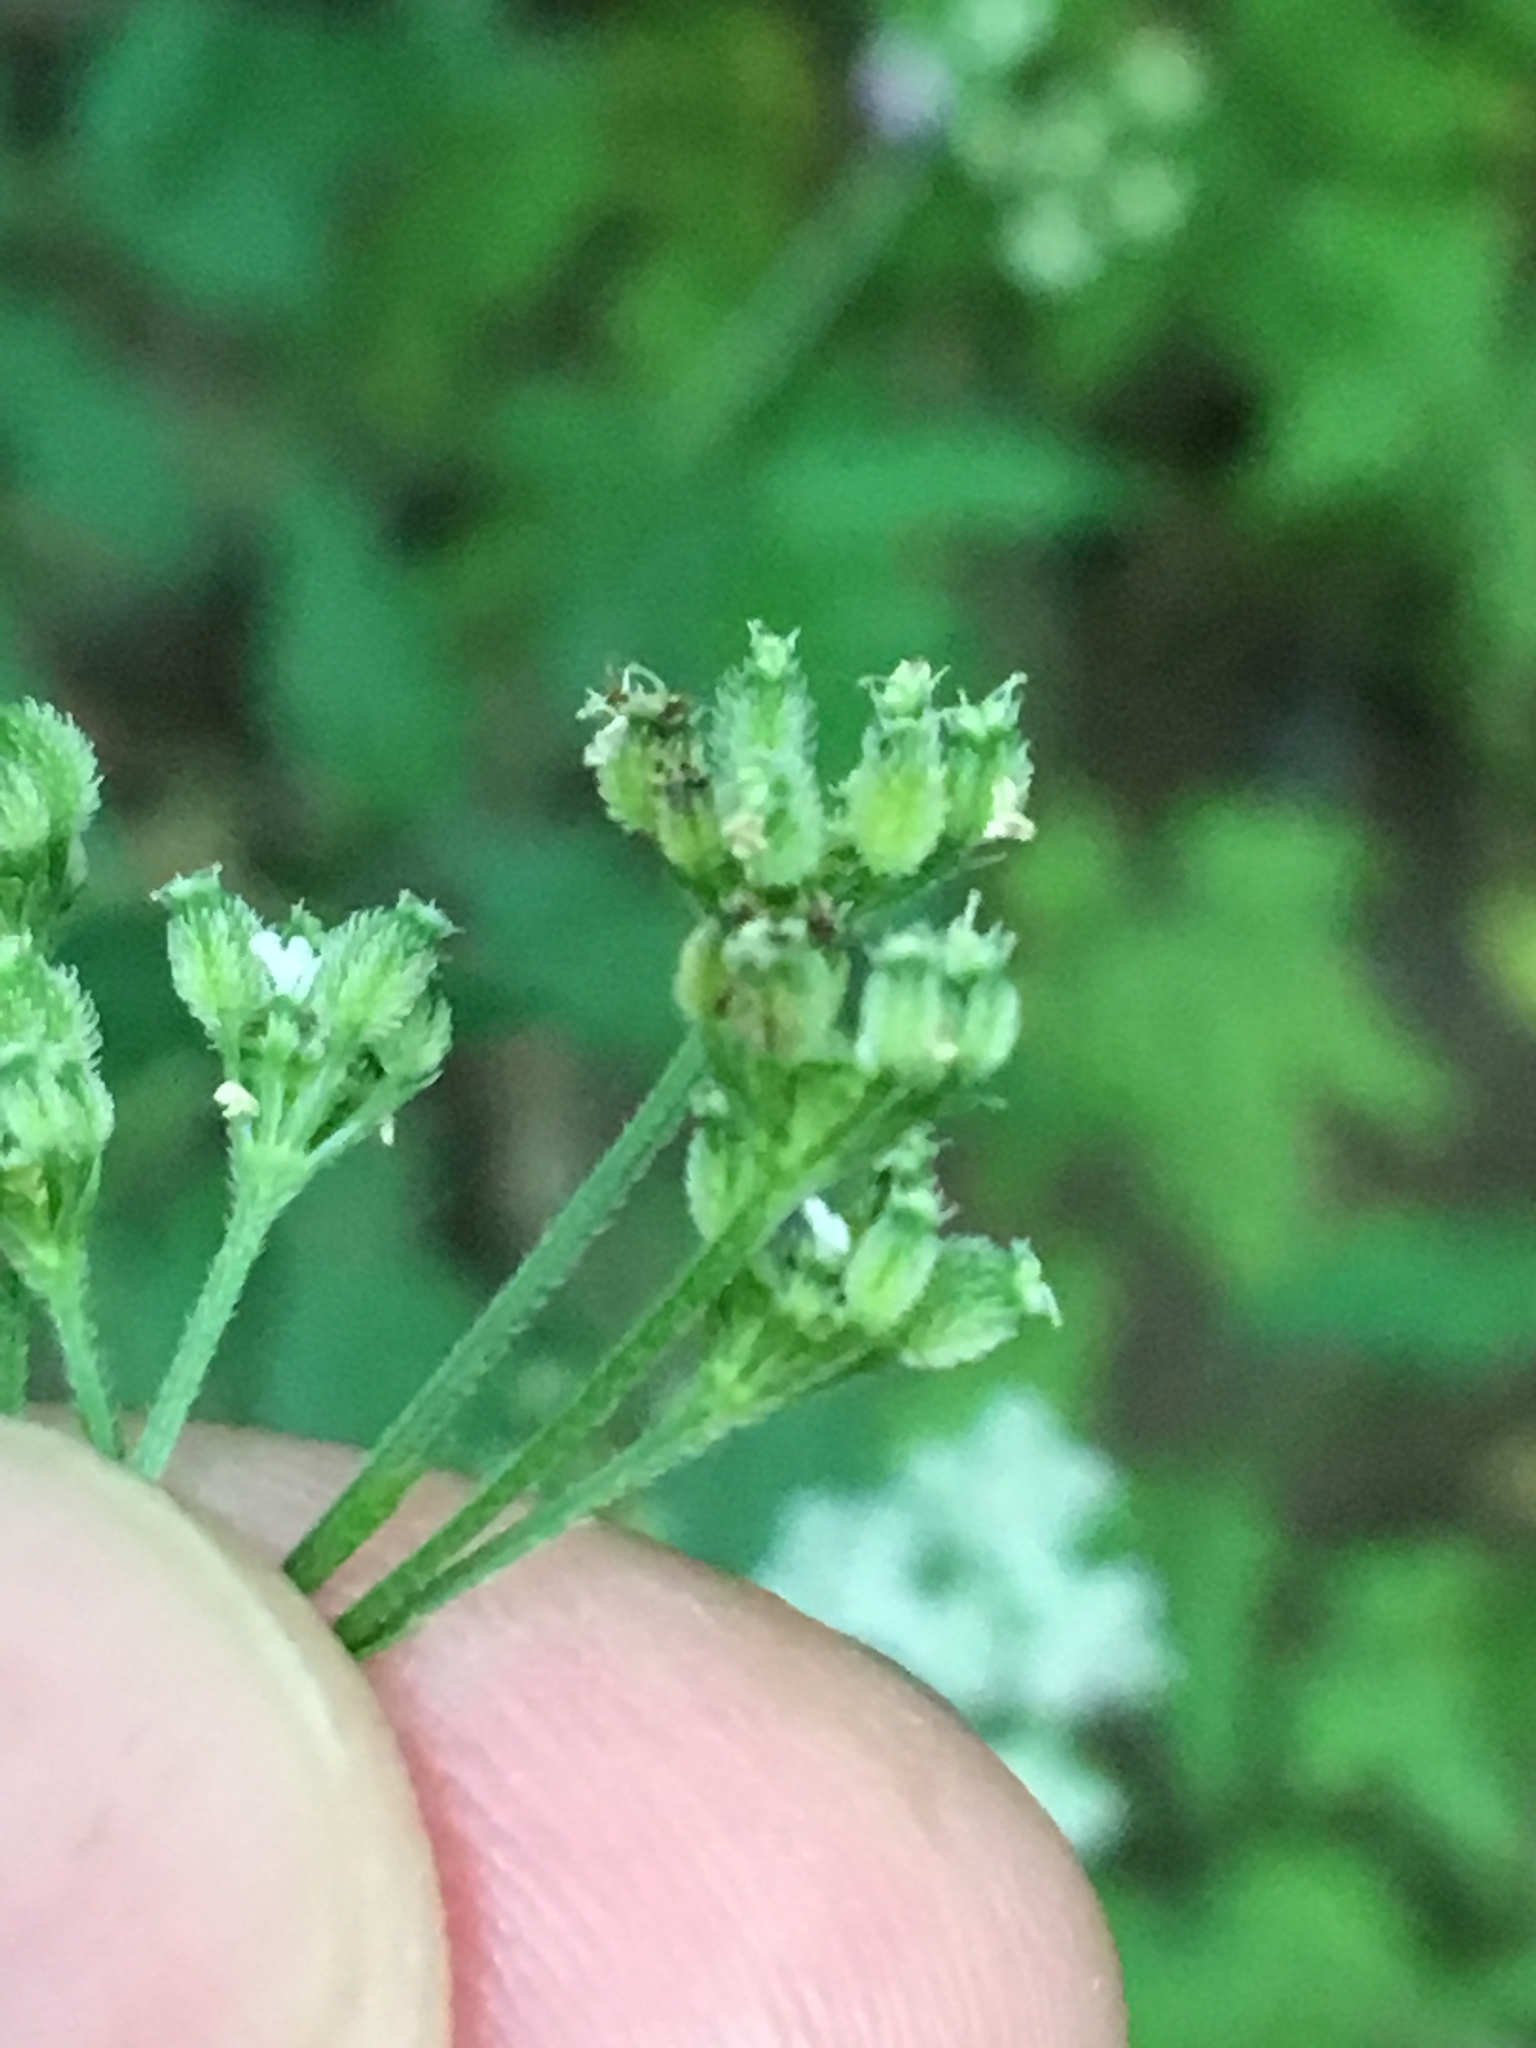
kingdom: Plantae
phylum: Tracheophyta
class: Magnoliopsida
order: Apiales
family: Apiaceae
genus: Torilis
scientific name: Torilis japonica
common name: Upright hedge-parsley
